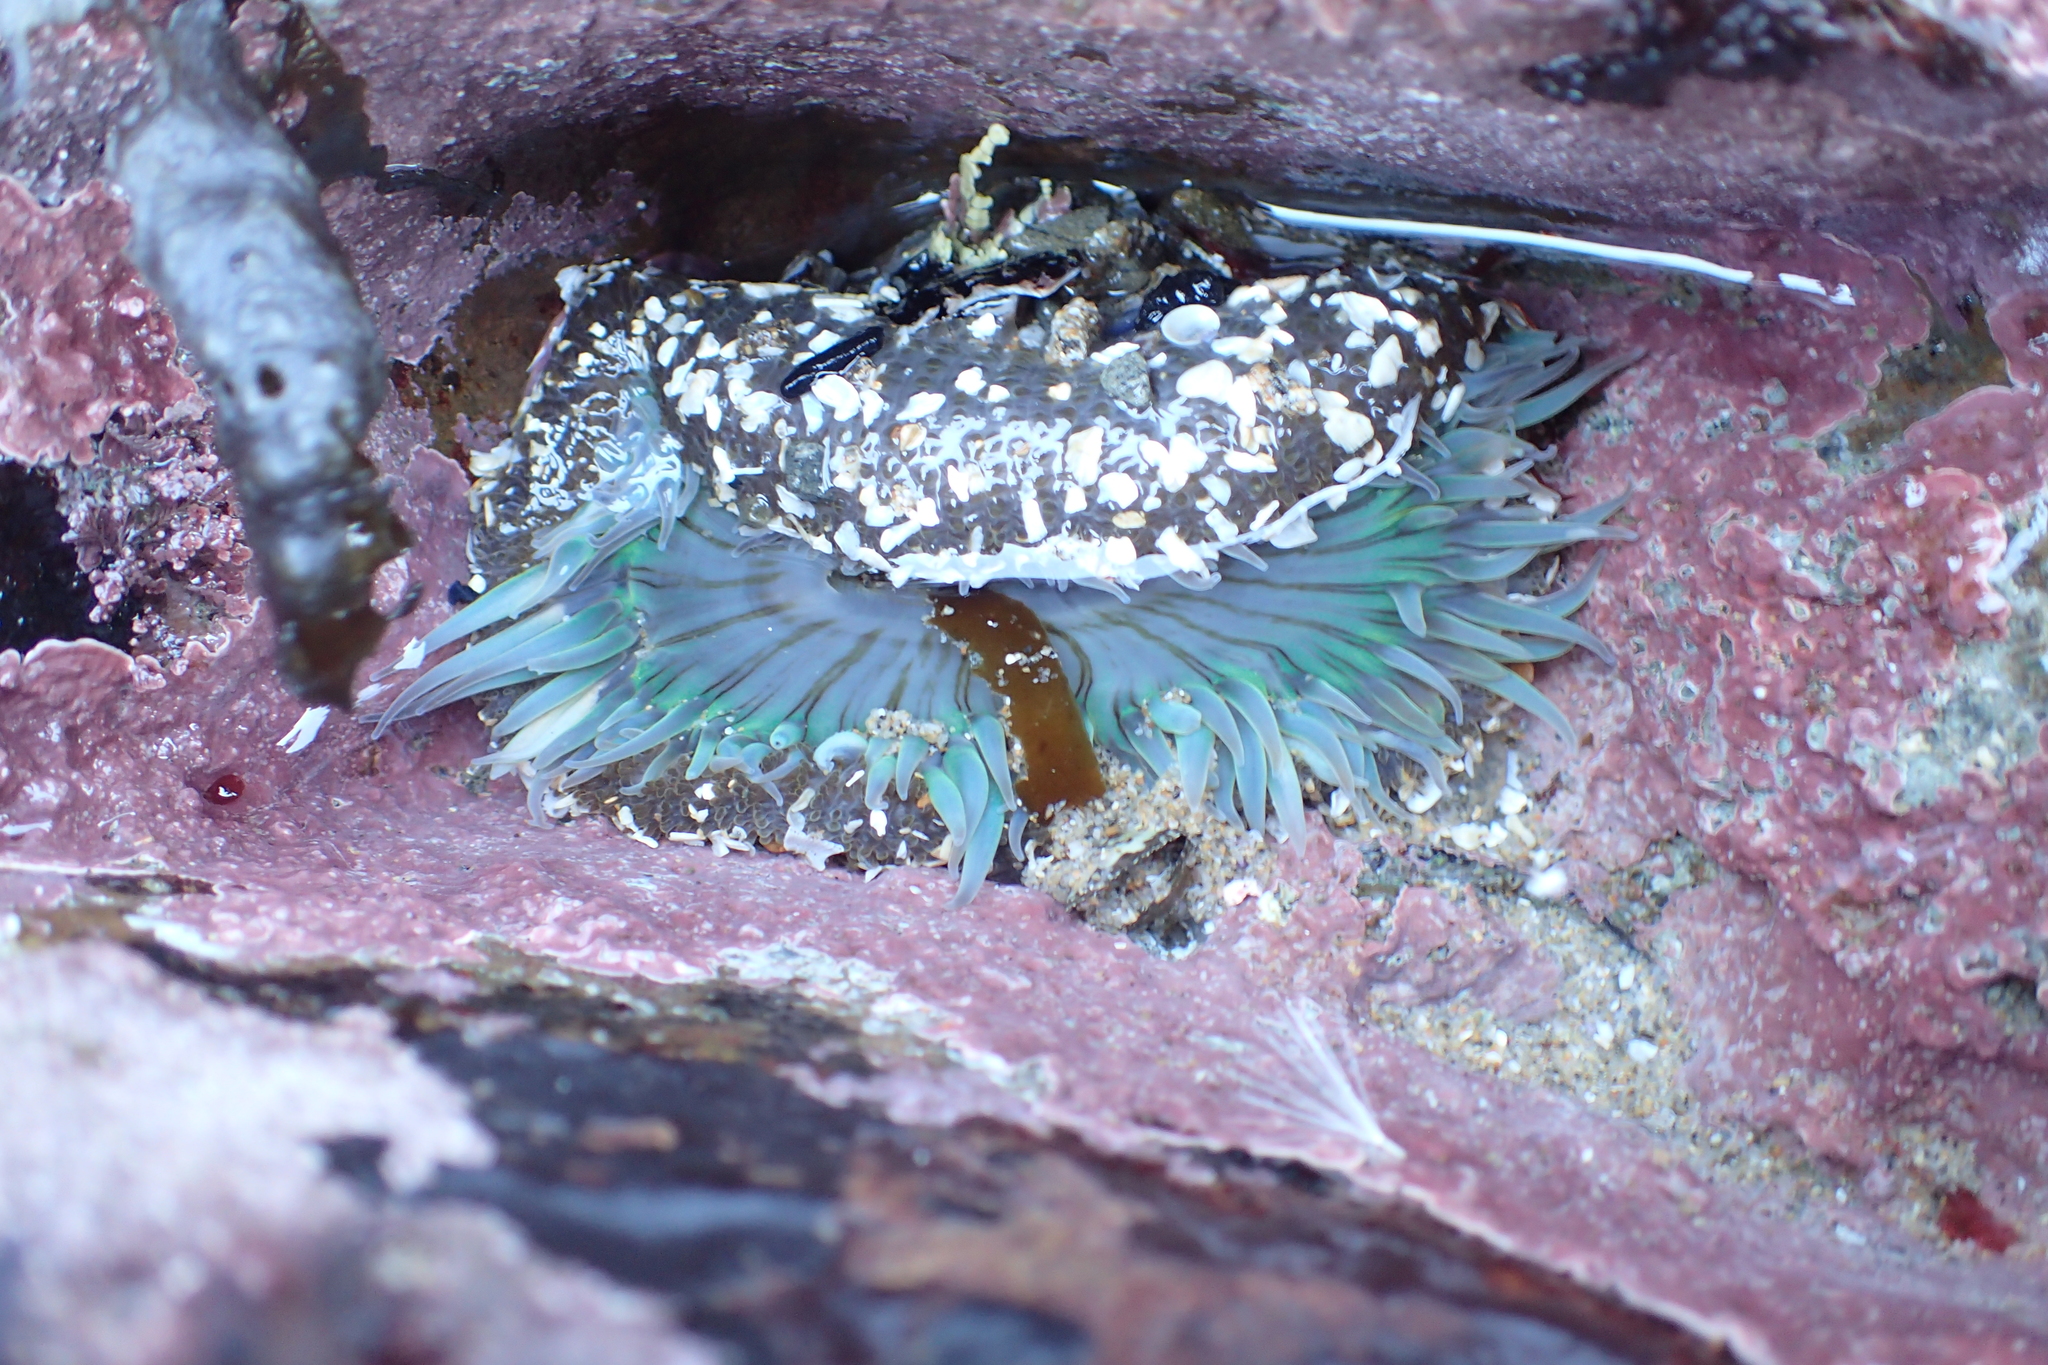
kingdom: Animalia
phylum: Cnidaria
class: Anthozoa
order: Actiniaria
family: Actiniidae
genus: Anthopleura
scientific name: Anthopleura sola
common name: Sun anemone
